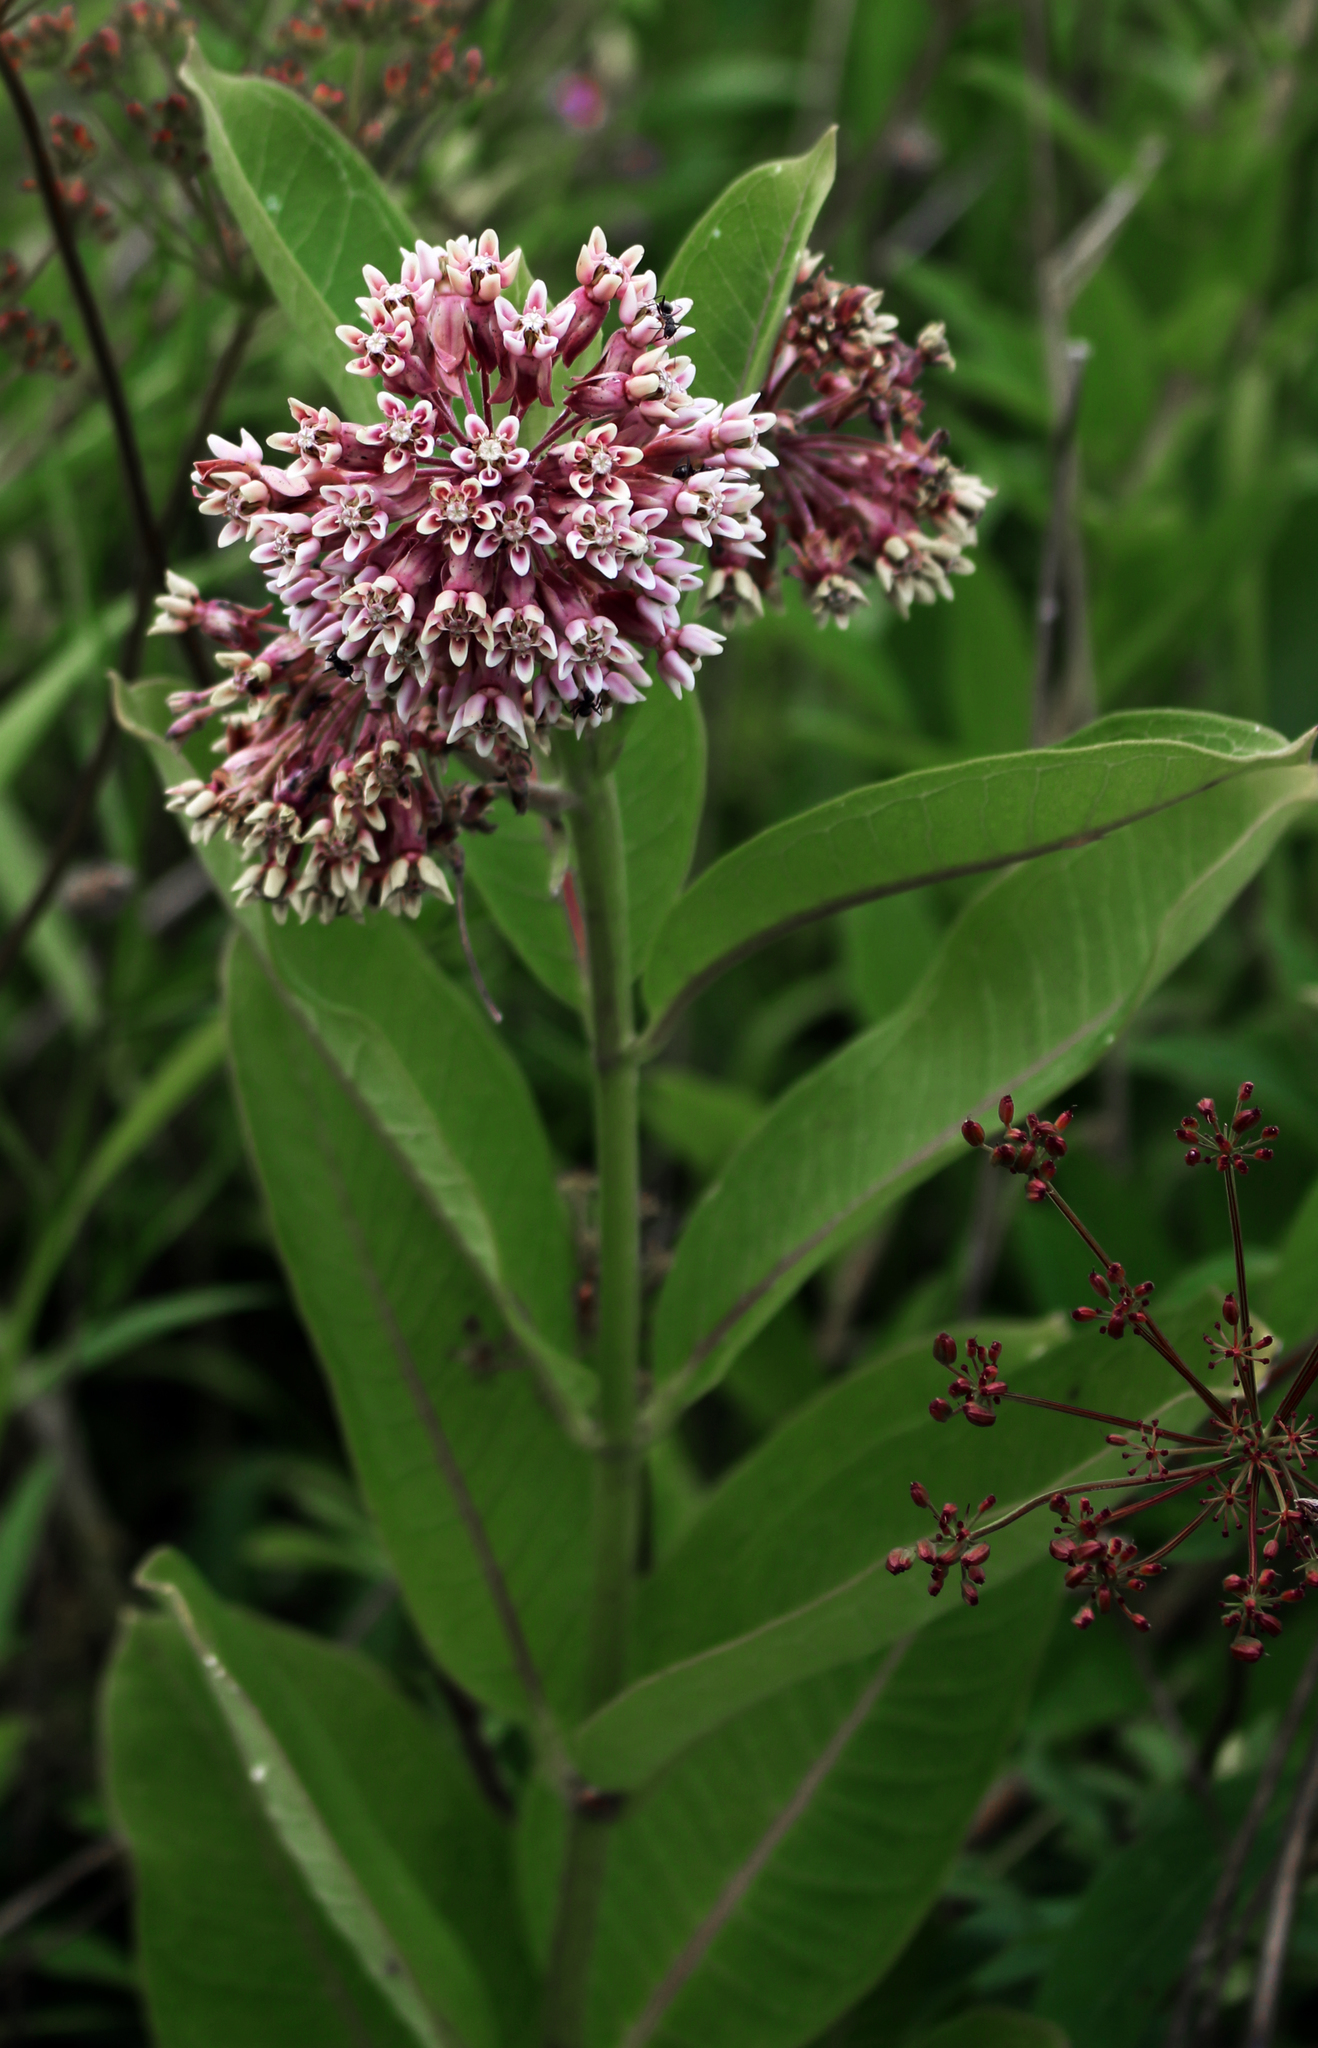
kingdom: Plantae
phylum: Tracheophyta
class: Magnoliopsida
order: Gentianales
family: Apocynaceae
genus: Asclepias
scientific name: Asclepias syriaca
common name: Common milkweed
